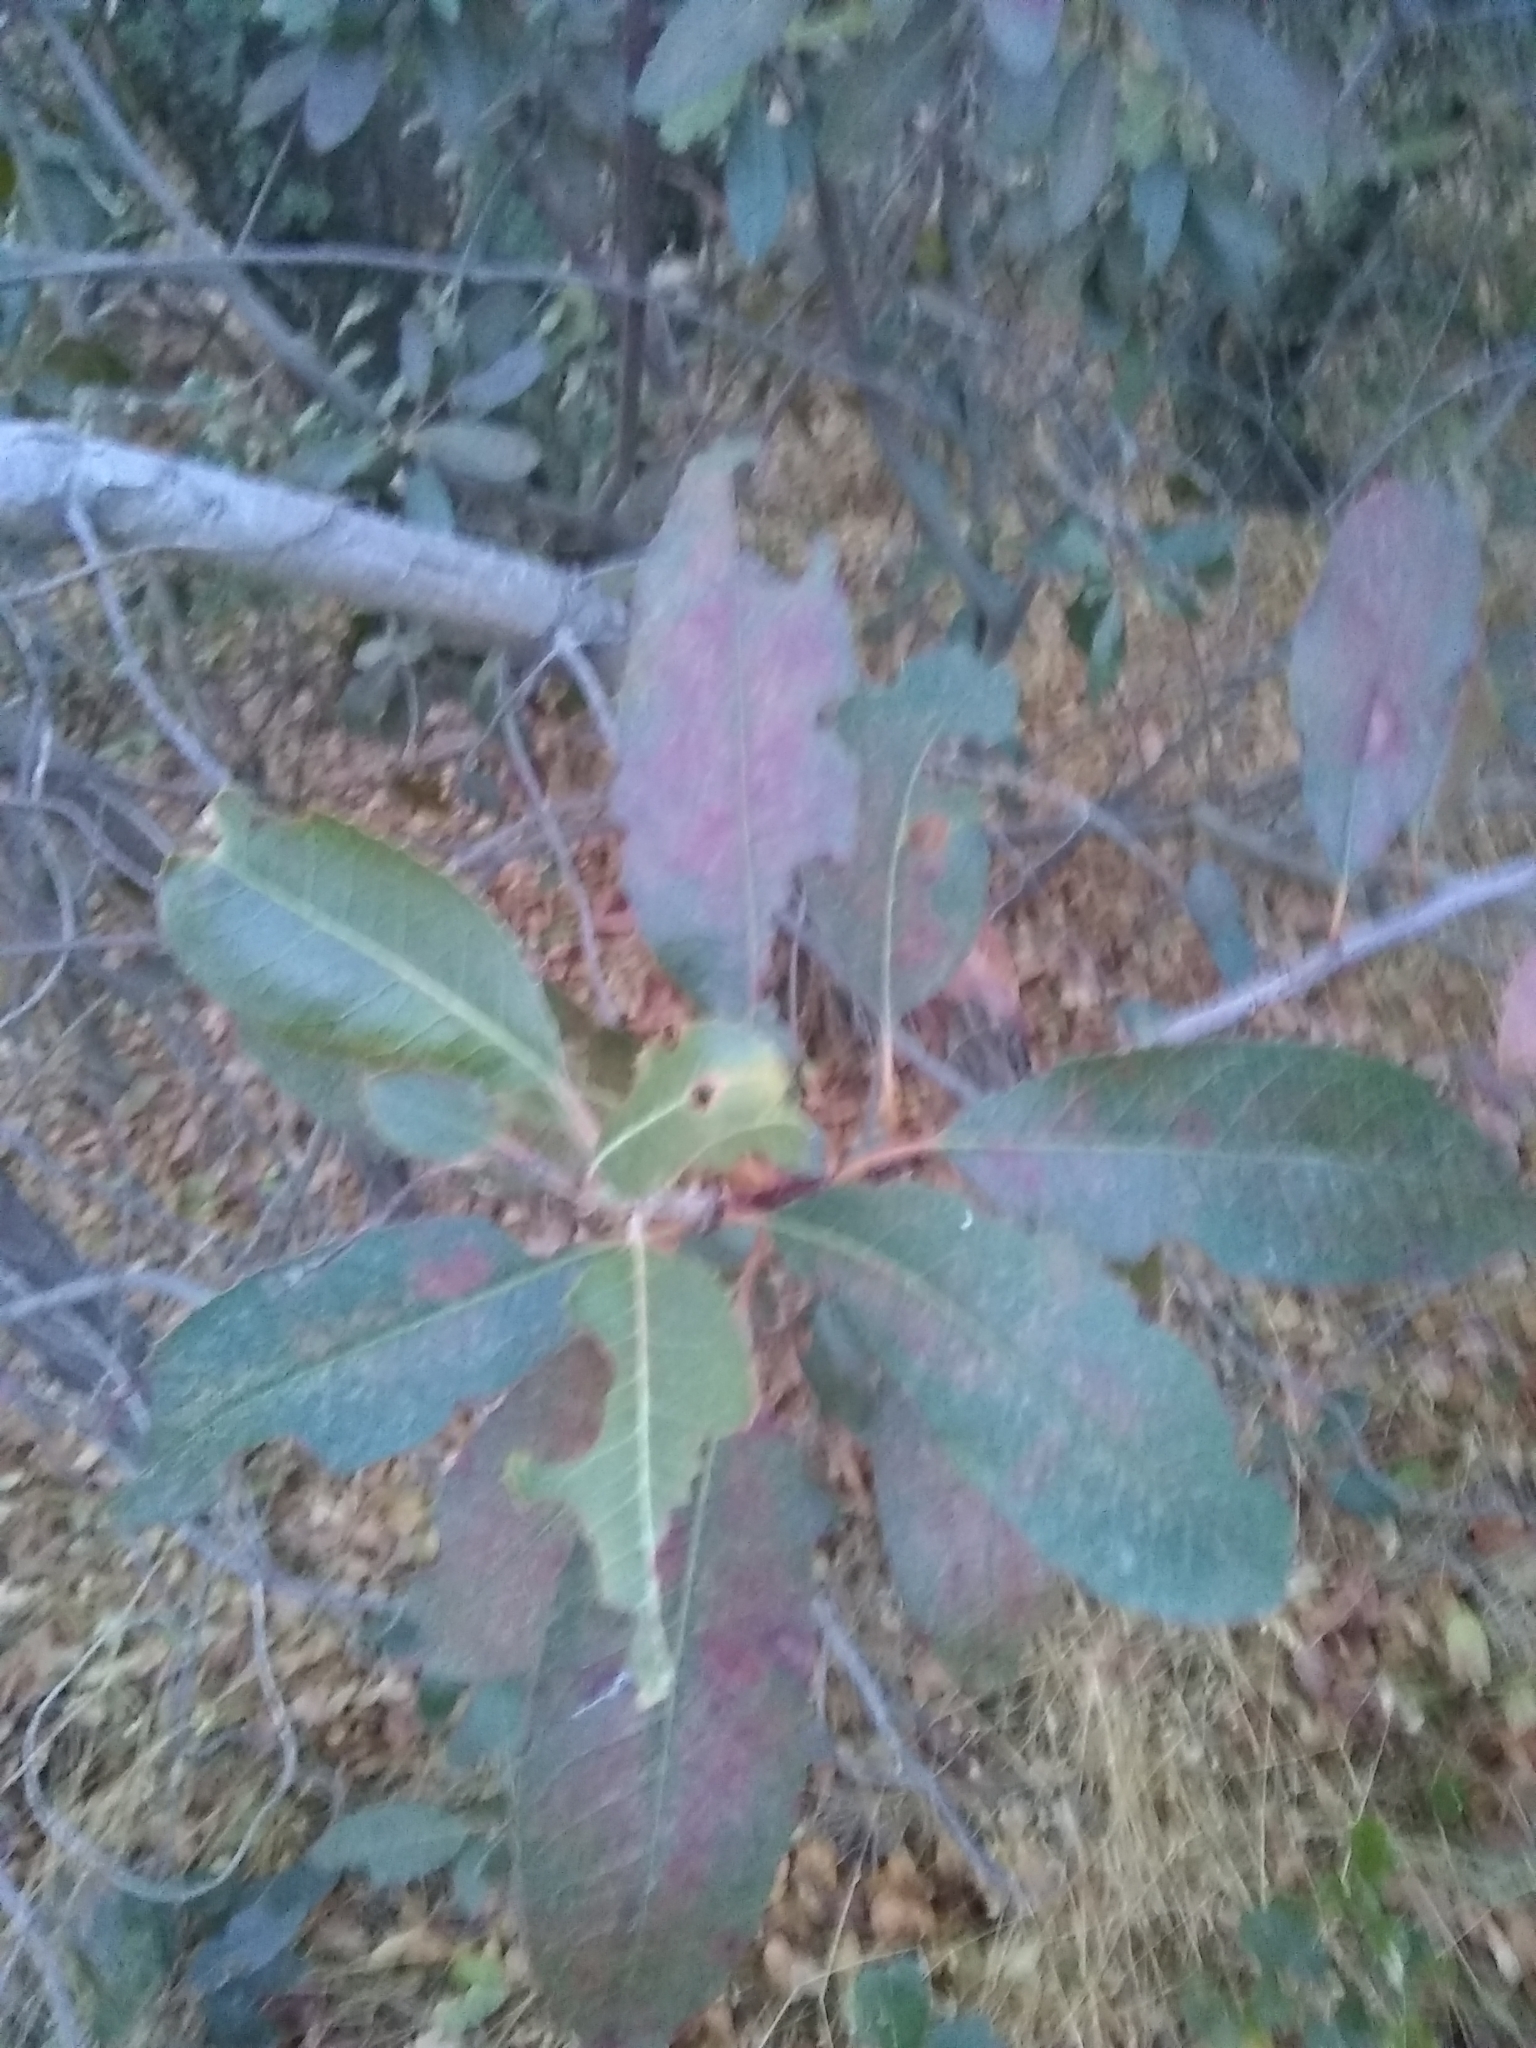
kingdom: Plantae
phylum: Tracheophyta
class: Magnoliopsida
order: Rosales
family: Rosaceae
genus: Heteromeles
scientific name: Heteromeles arbutifolia
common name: California-holly
